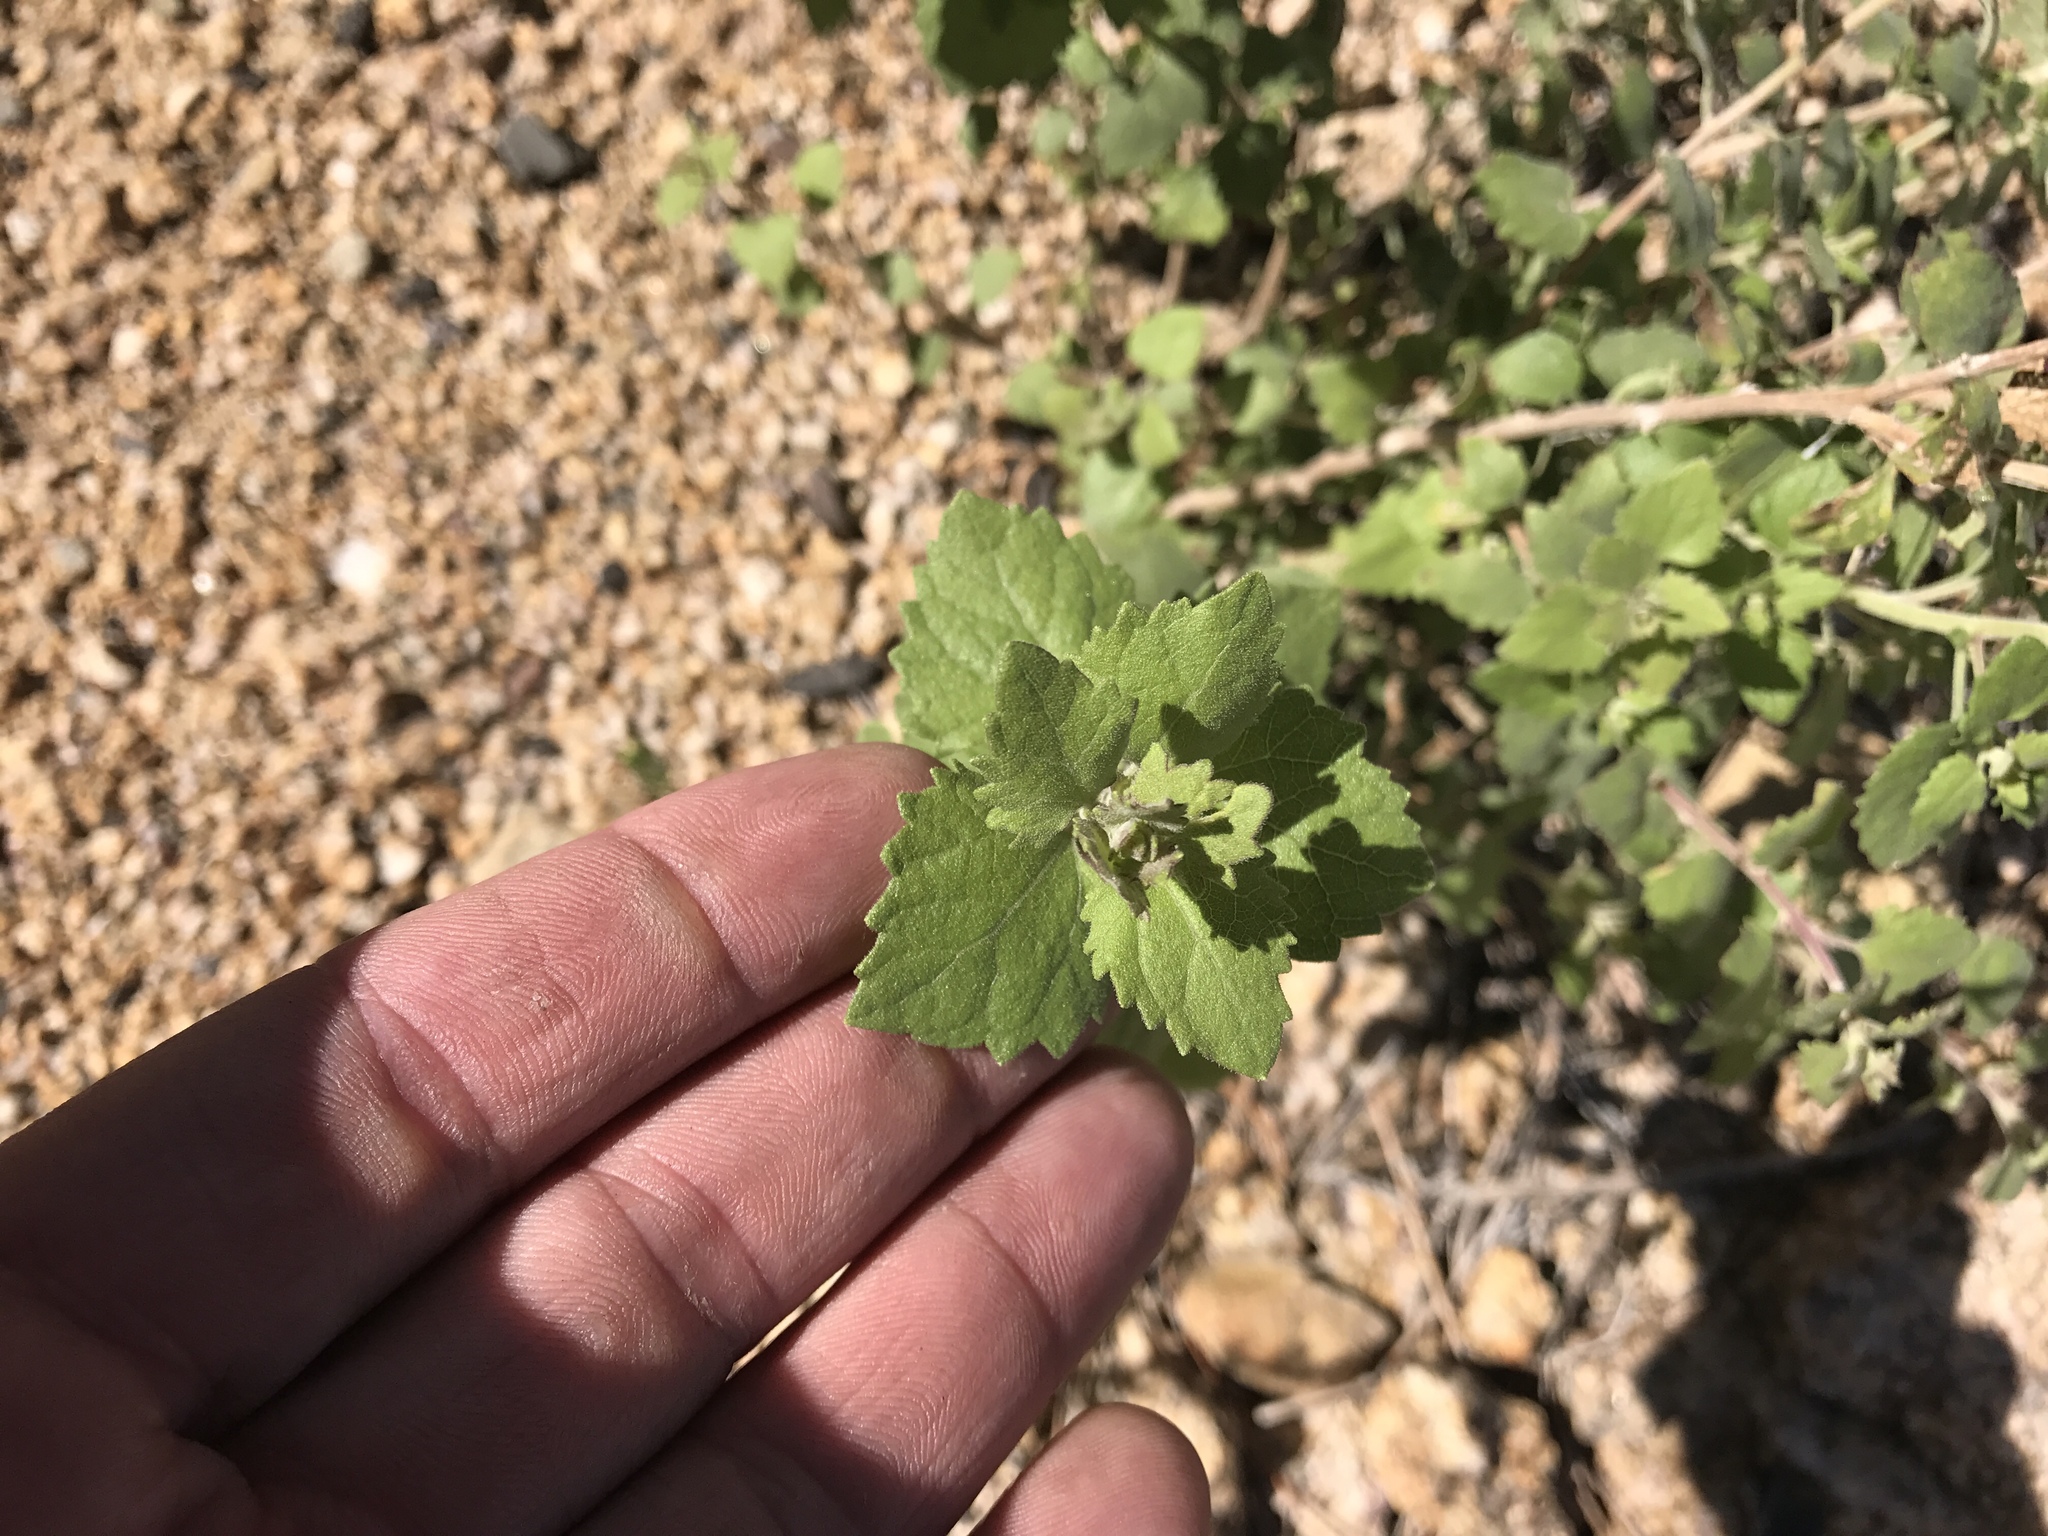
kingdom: Plantae
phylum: Tracheophyta
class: Magnoliopsida
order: Asterales
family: Asteraceae
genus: Brickellia
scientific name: Brickellia californica
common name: California brickellbush
